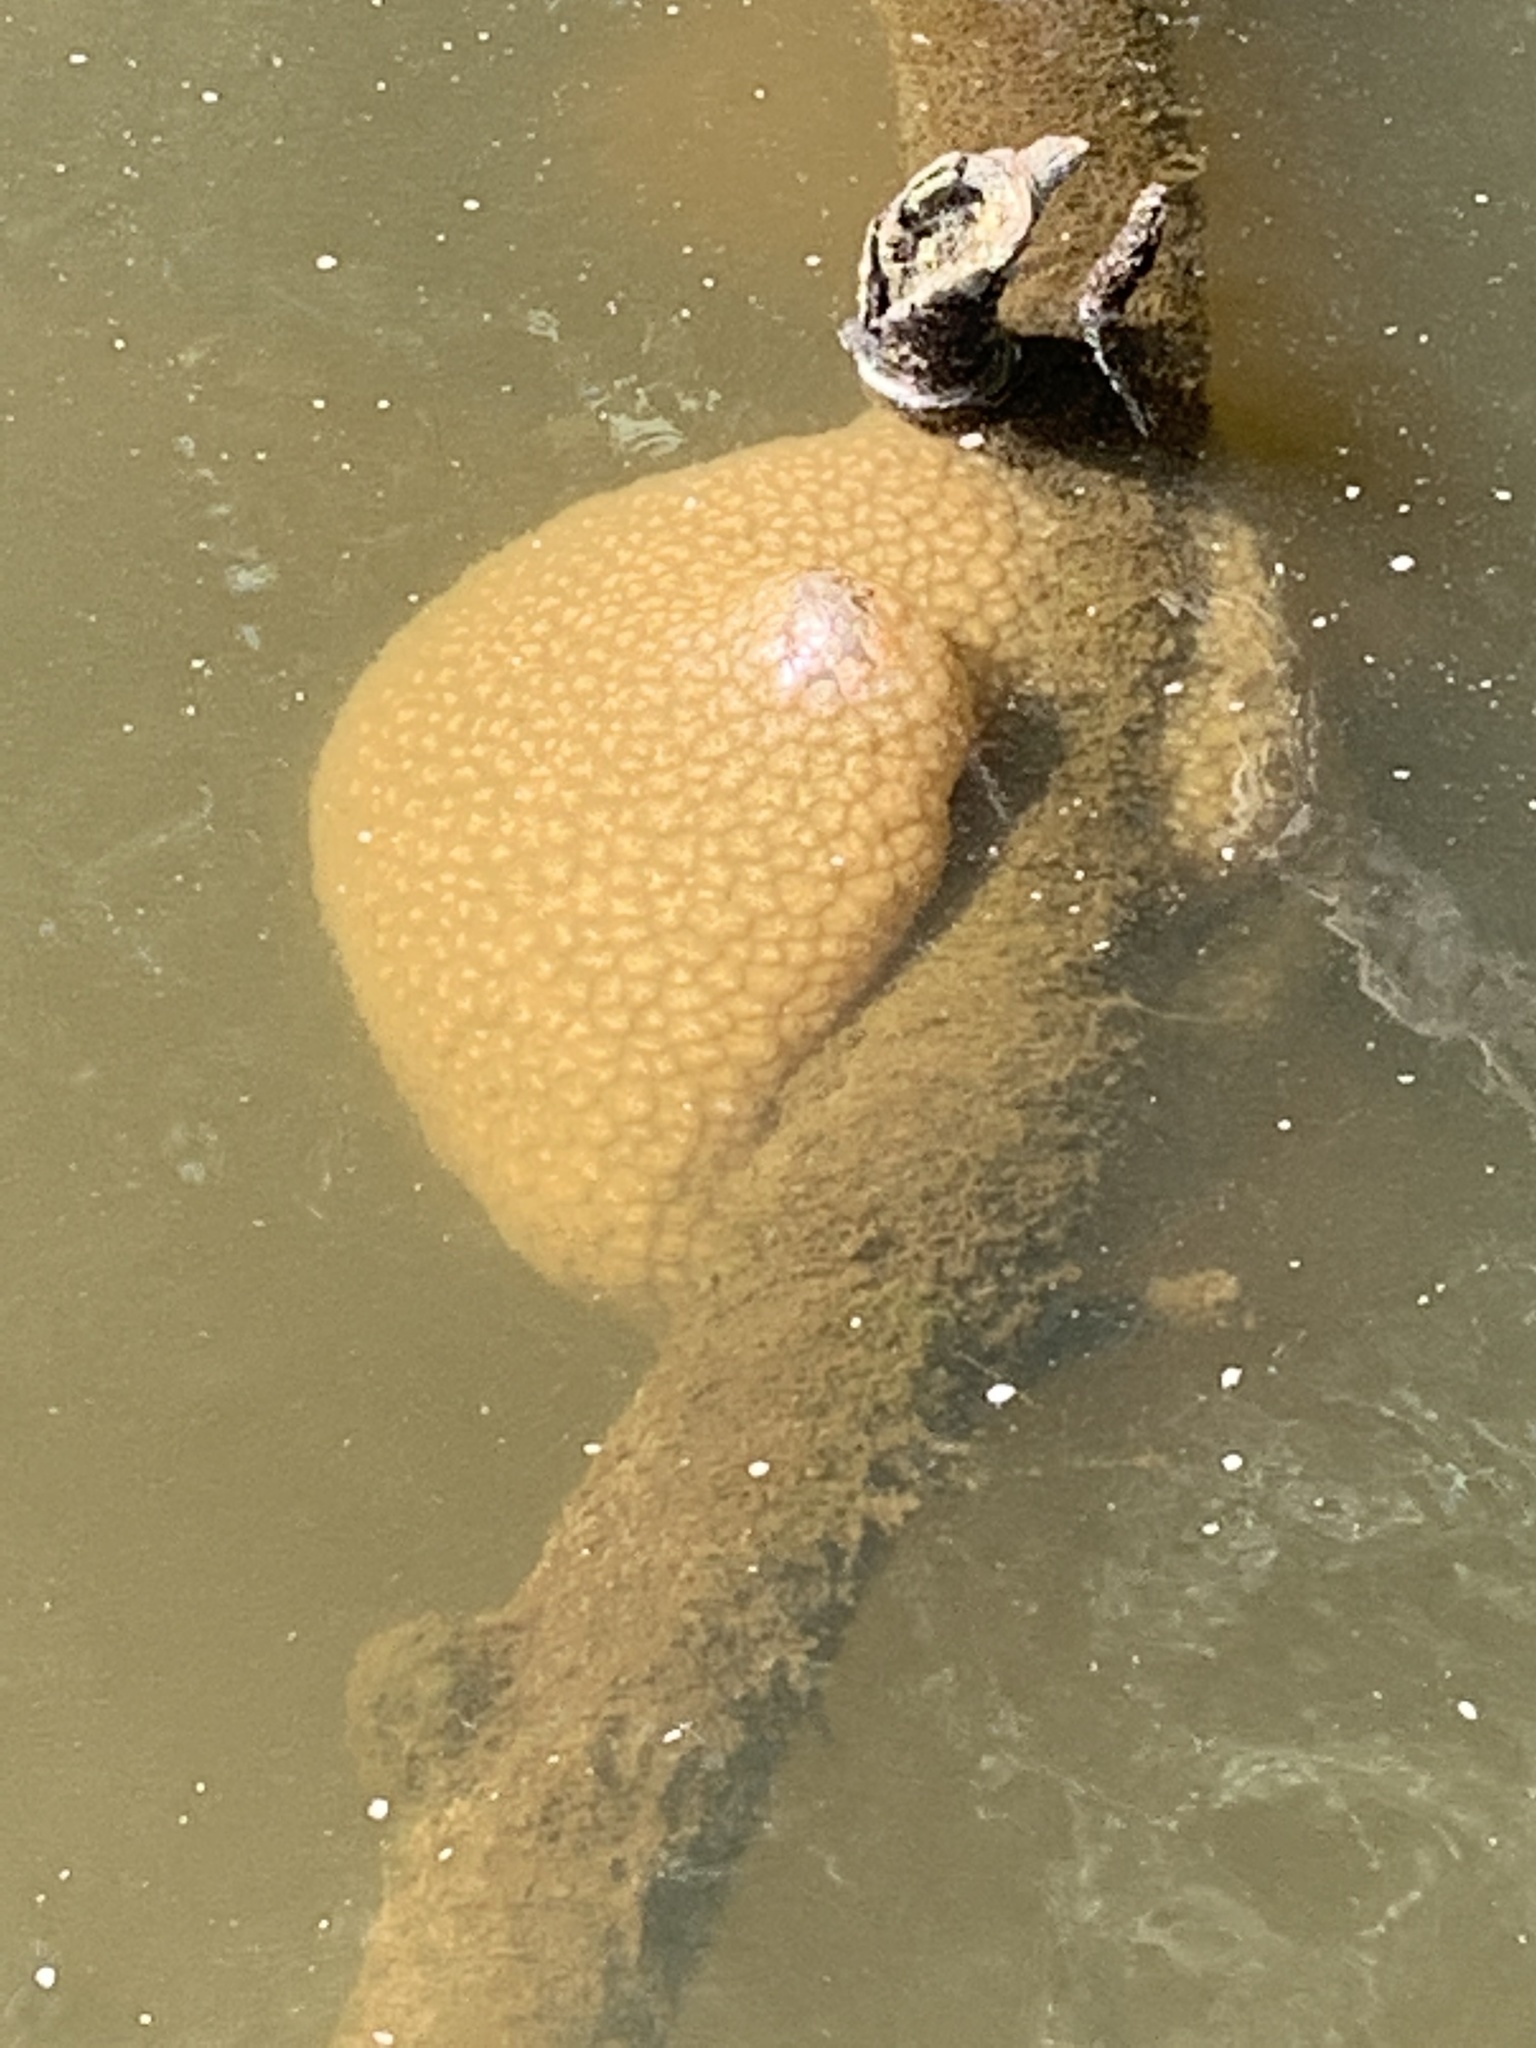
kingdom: Animalia
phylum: Bryozoa
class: Phylactolaemata
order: Plumatellida
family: Pectinatellidae
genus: Pectinatella
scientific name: Pectinatella magnifica
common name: Magnificent bryozoan
